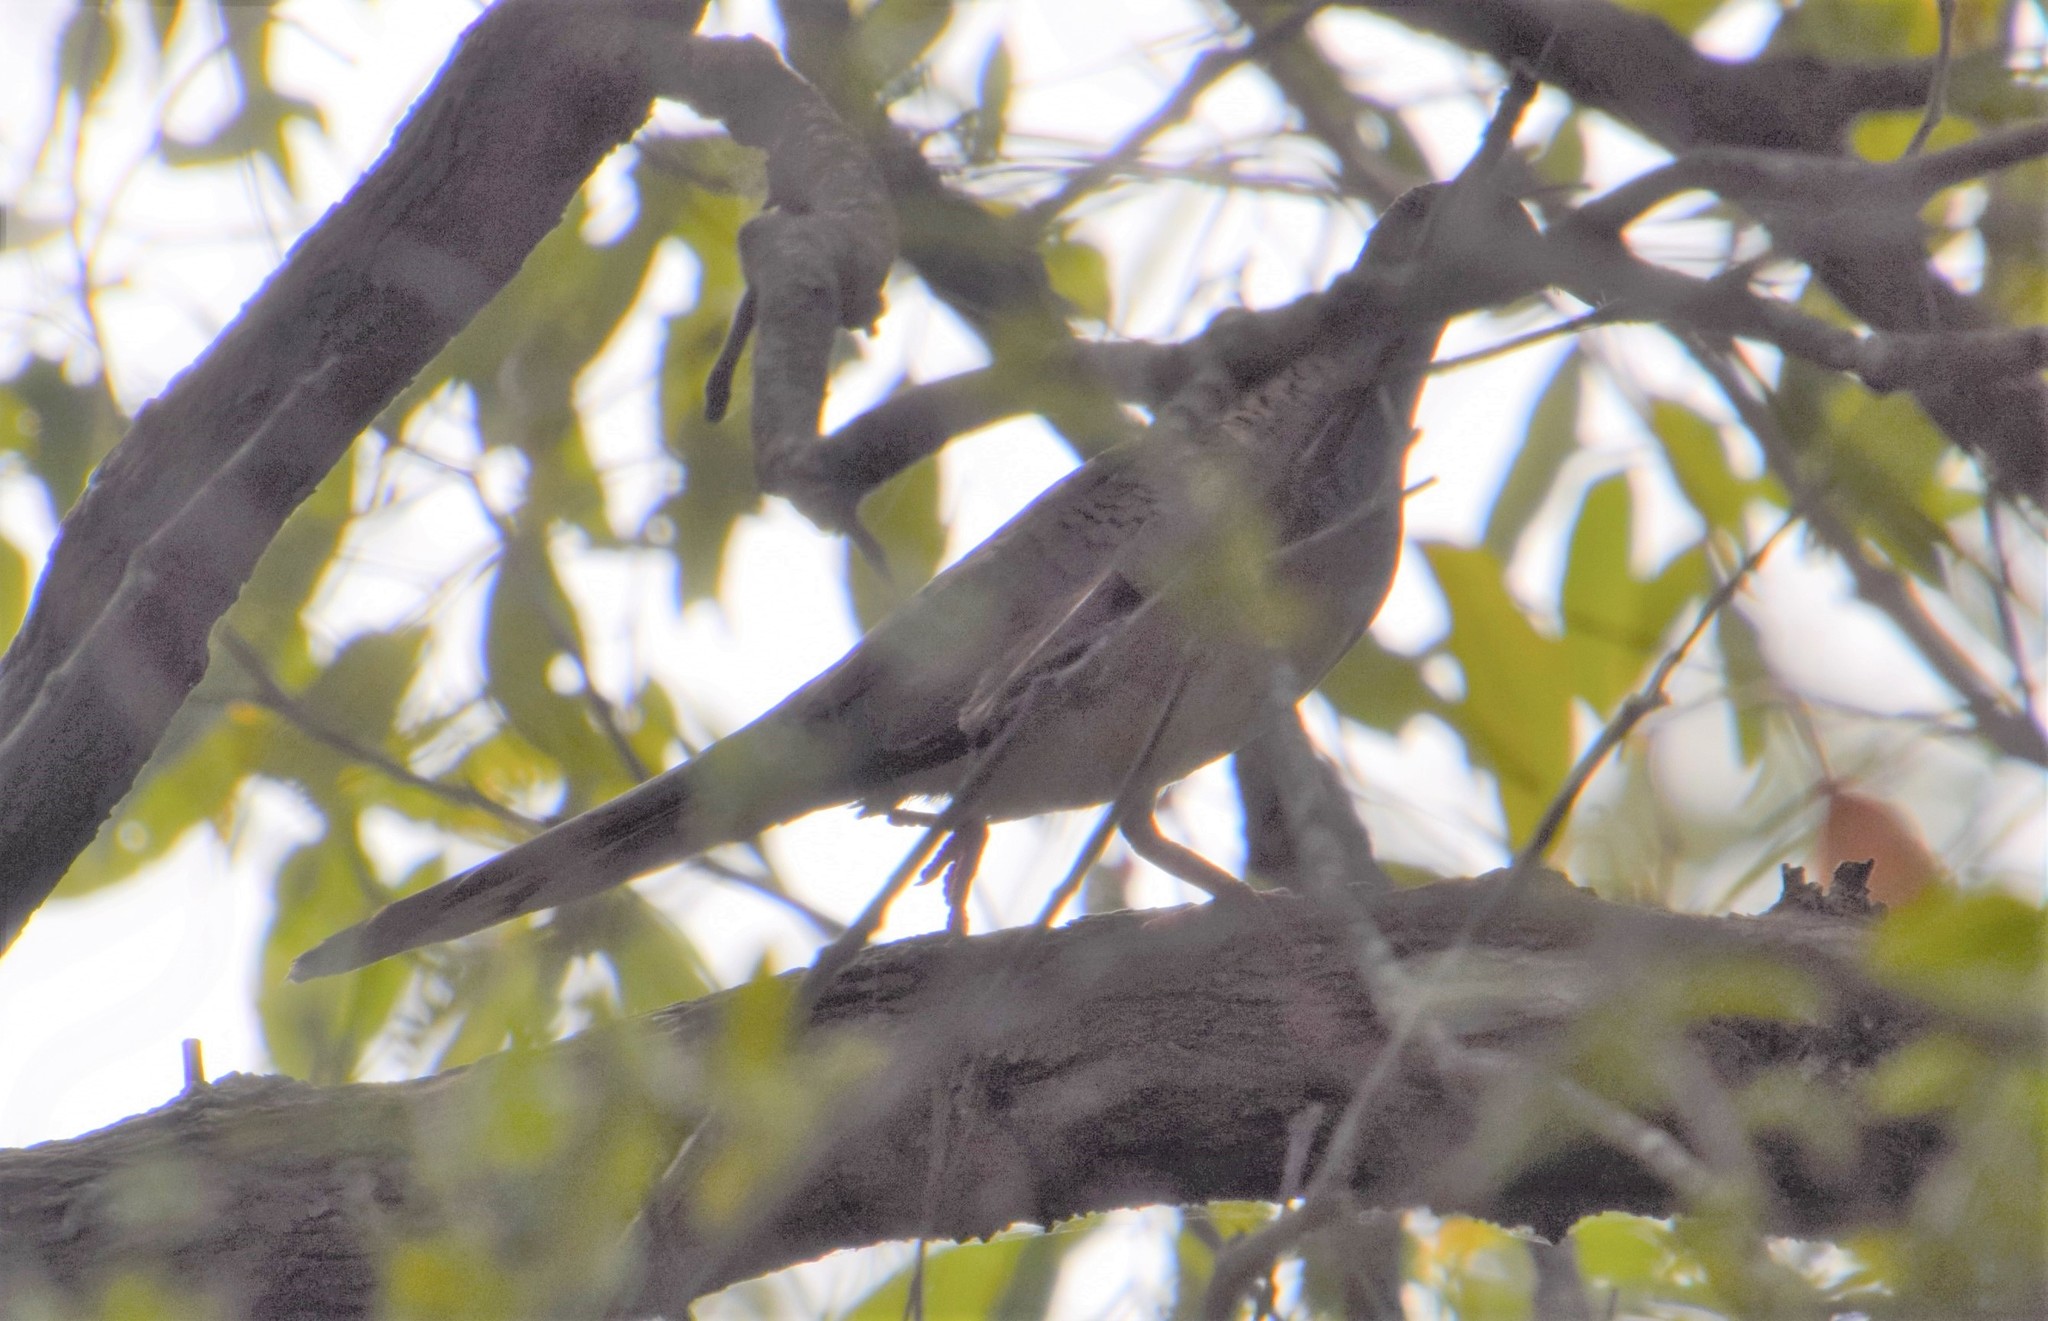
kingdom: Animalia
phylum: Chordata
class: Aves
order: Columbiformes
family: Columbidae
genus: Geopelia
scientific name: Geopelia humeralis
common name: Bar-shouldered dove
